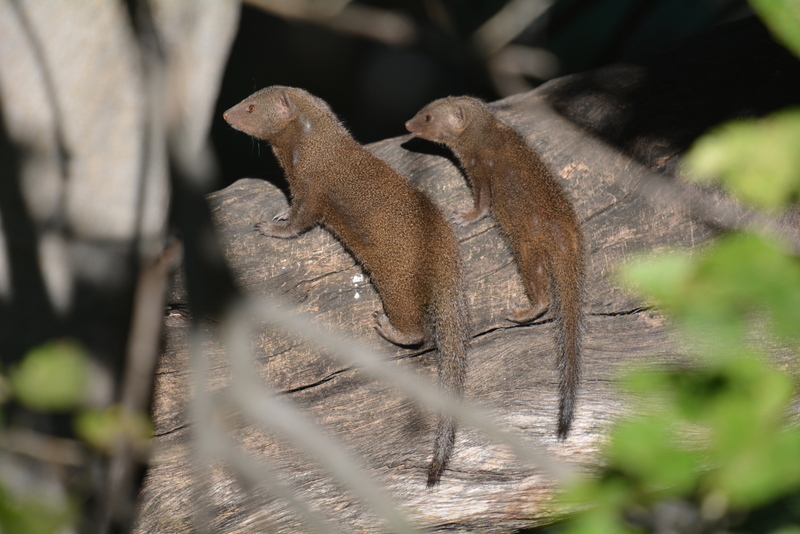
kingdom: Animalia
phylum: Chordata
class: Mammalia
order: Carnivora
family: Herpestidae
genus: Helogale
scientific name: Helogale parvula
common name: Common dwarf mongoose
